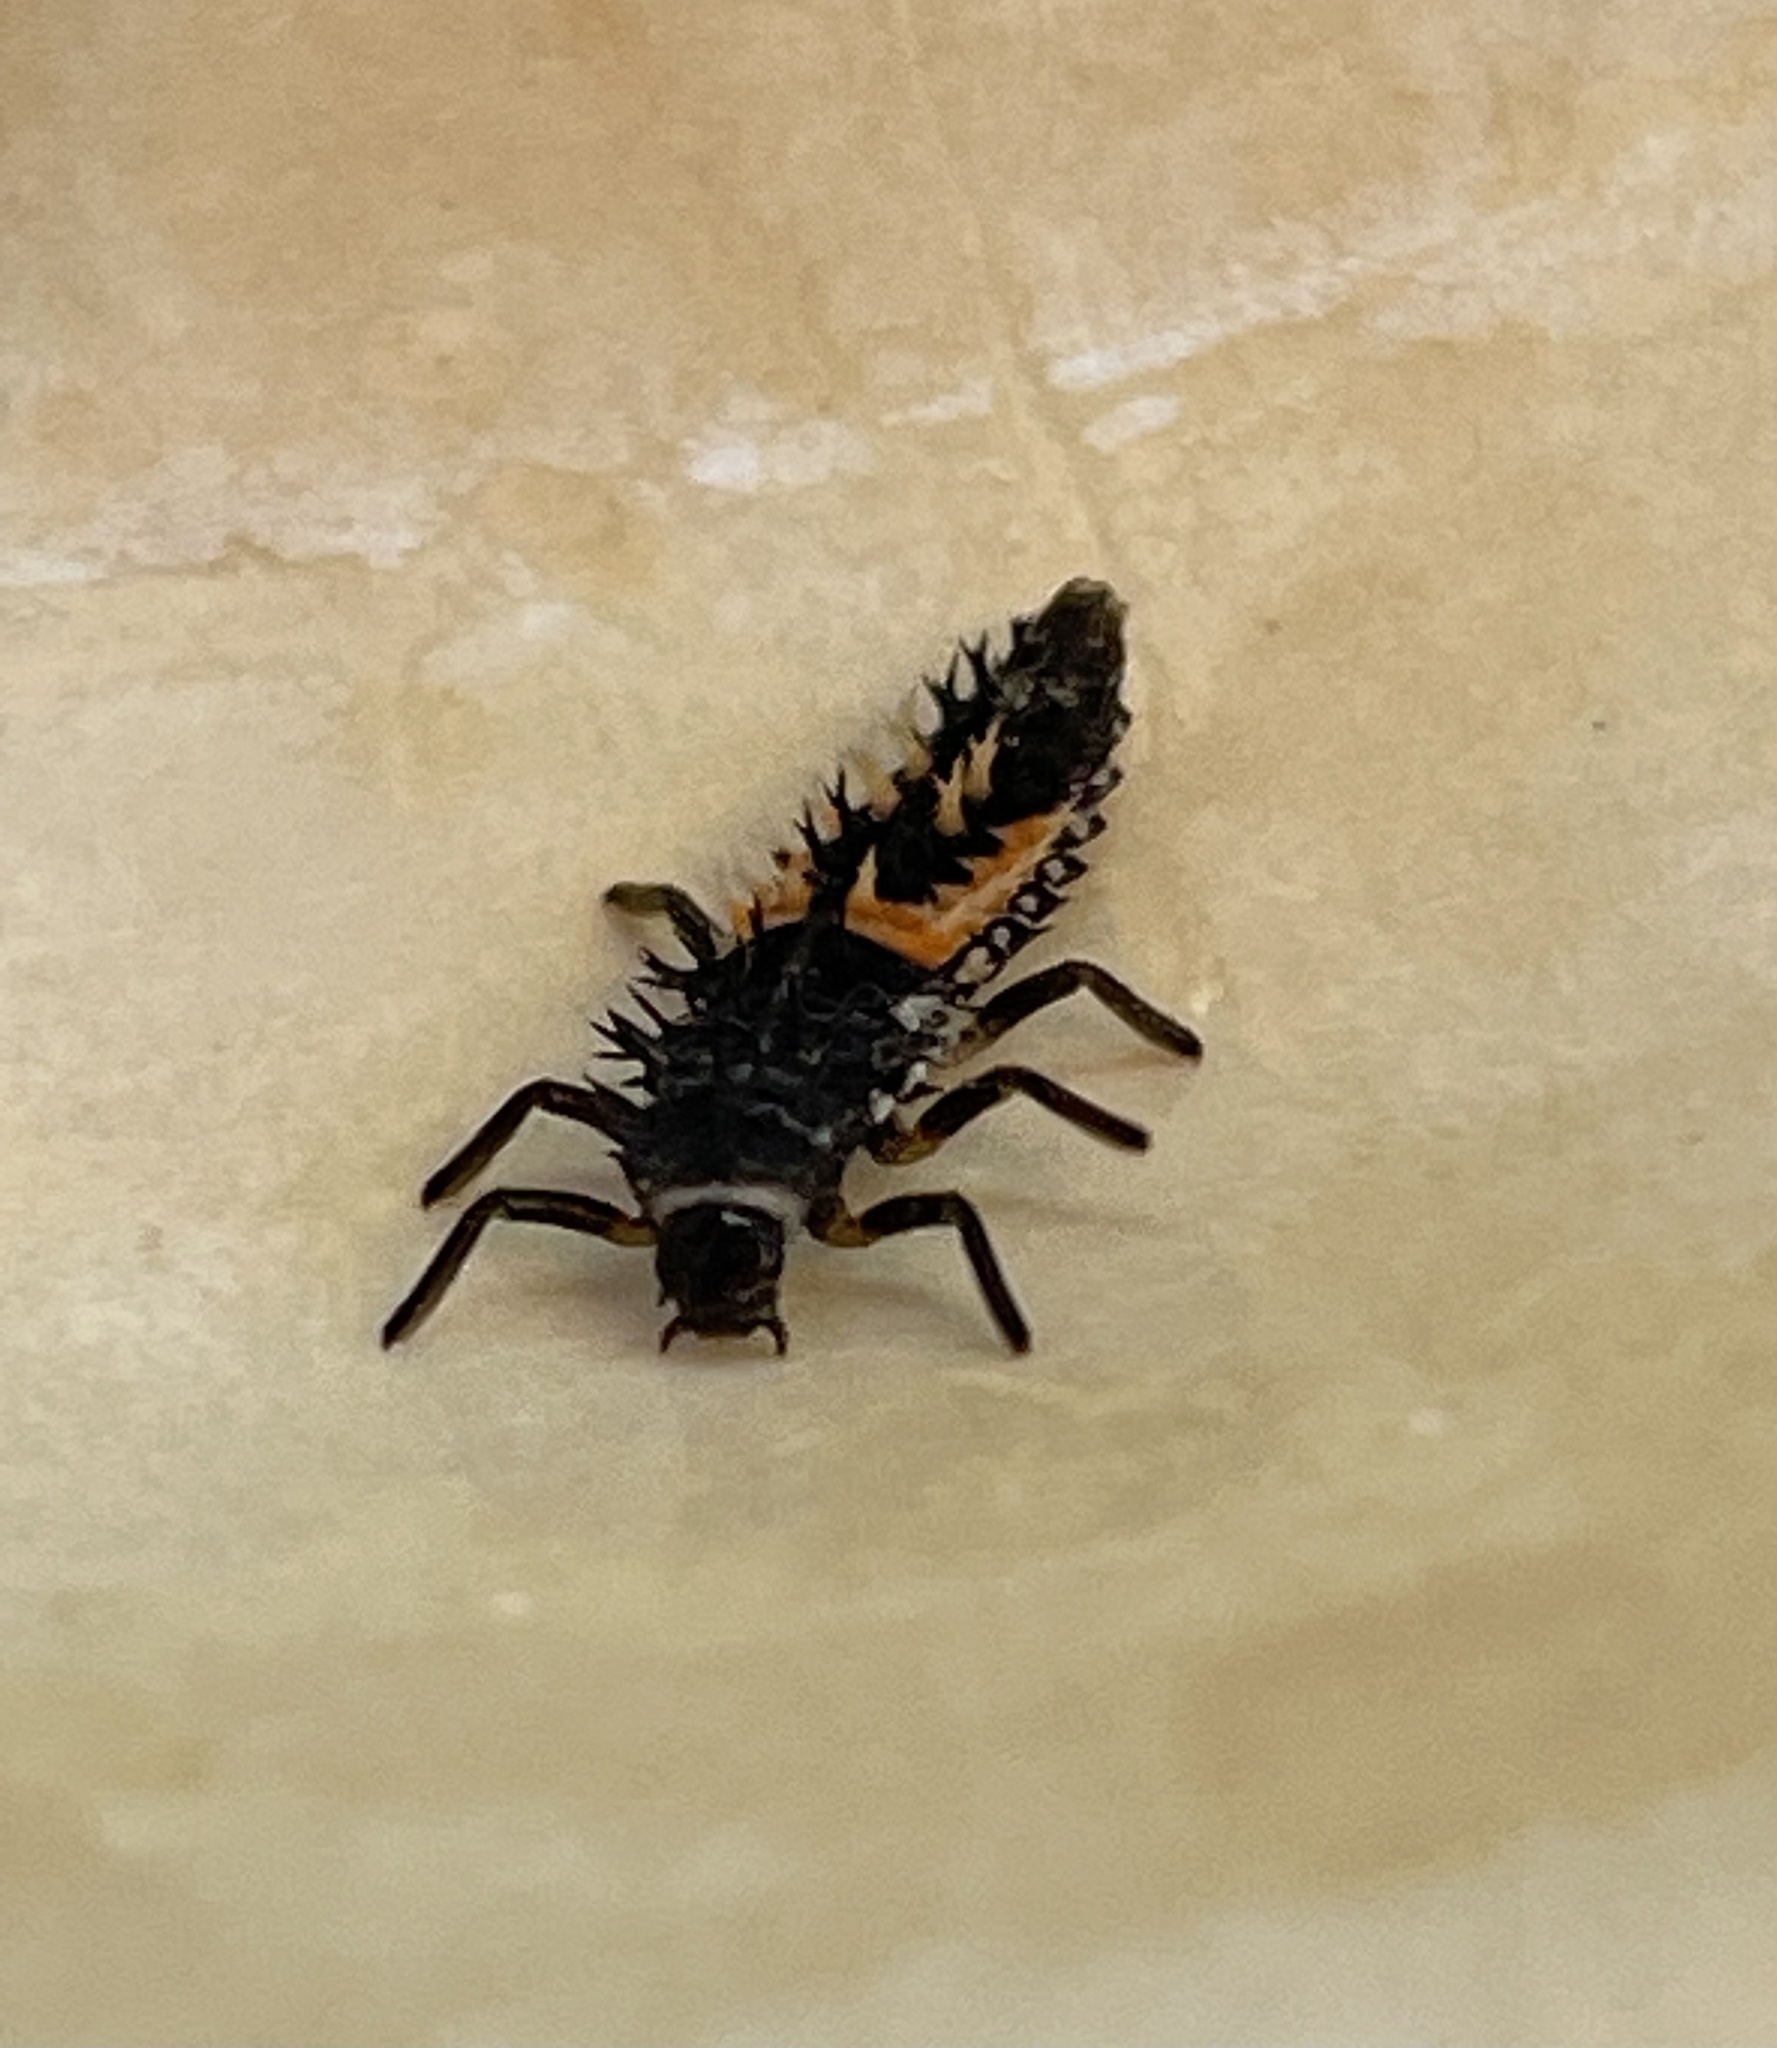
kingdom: Animalia
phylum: Arthropoda
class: Insecta
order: Coleoptera
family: Coccinellidae
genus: Harmonia
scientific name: Harmonia axyridis
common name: Harlequin ladybird
